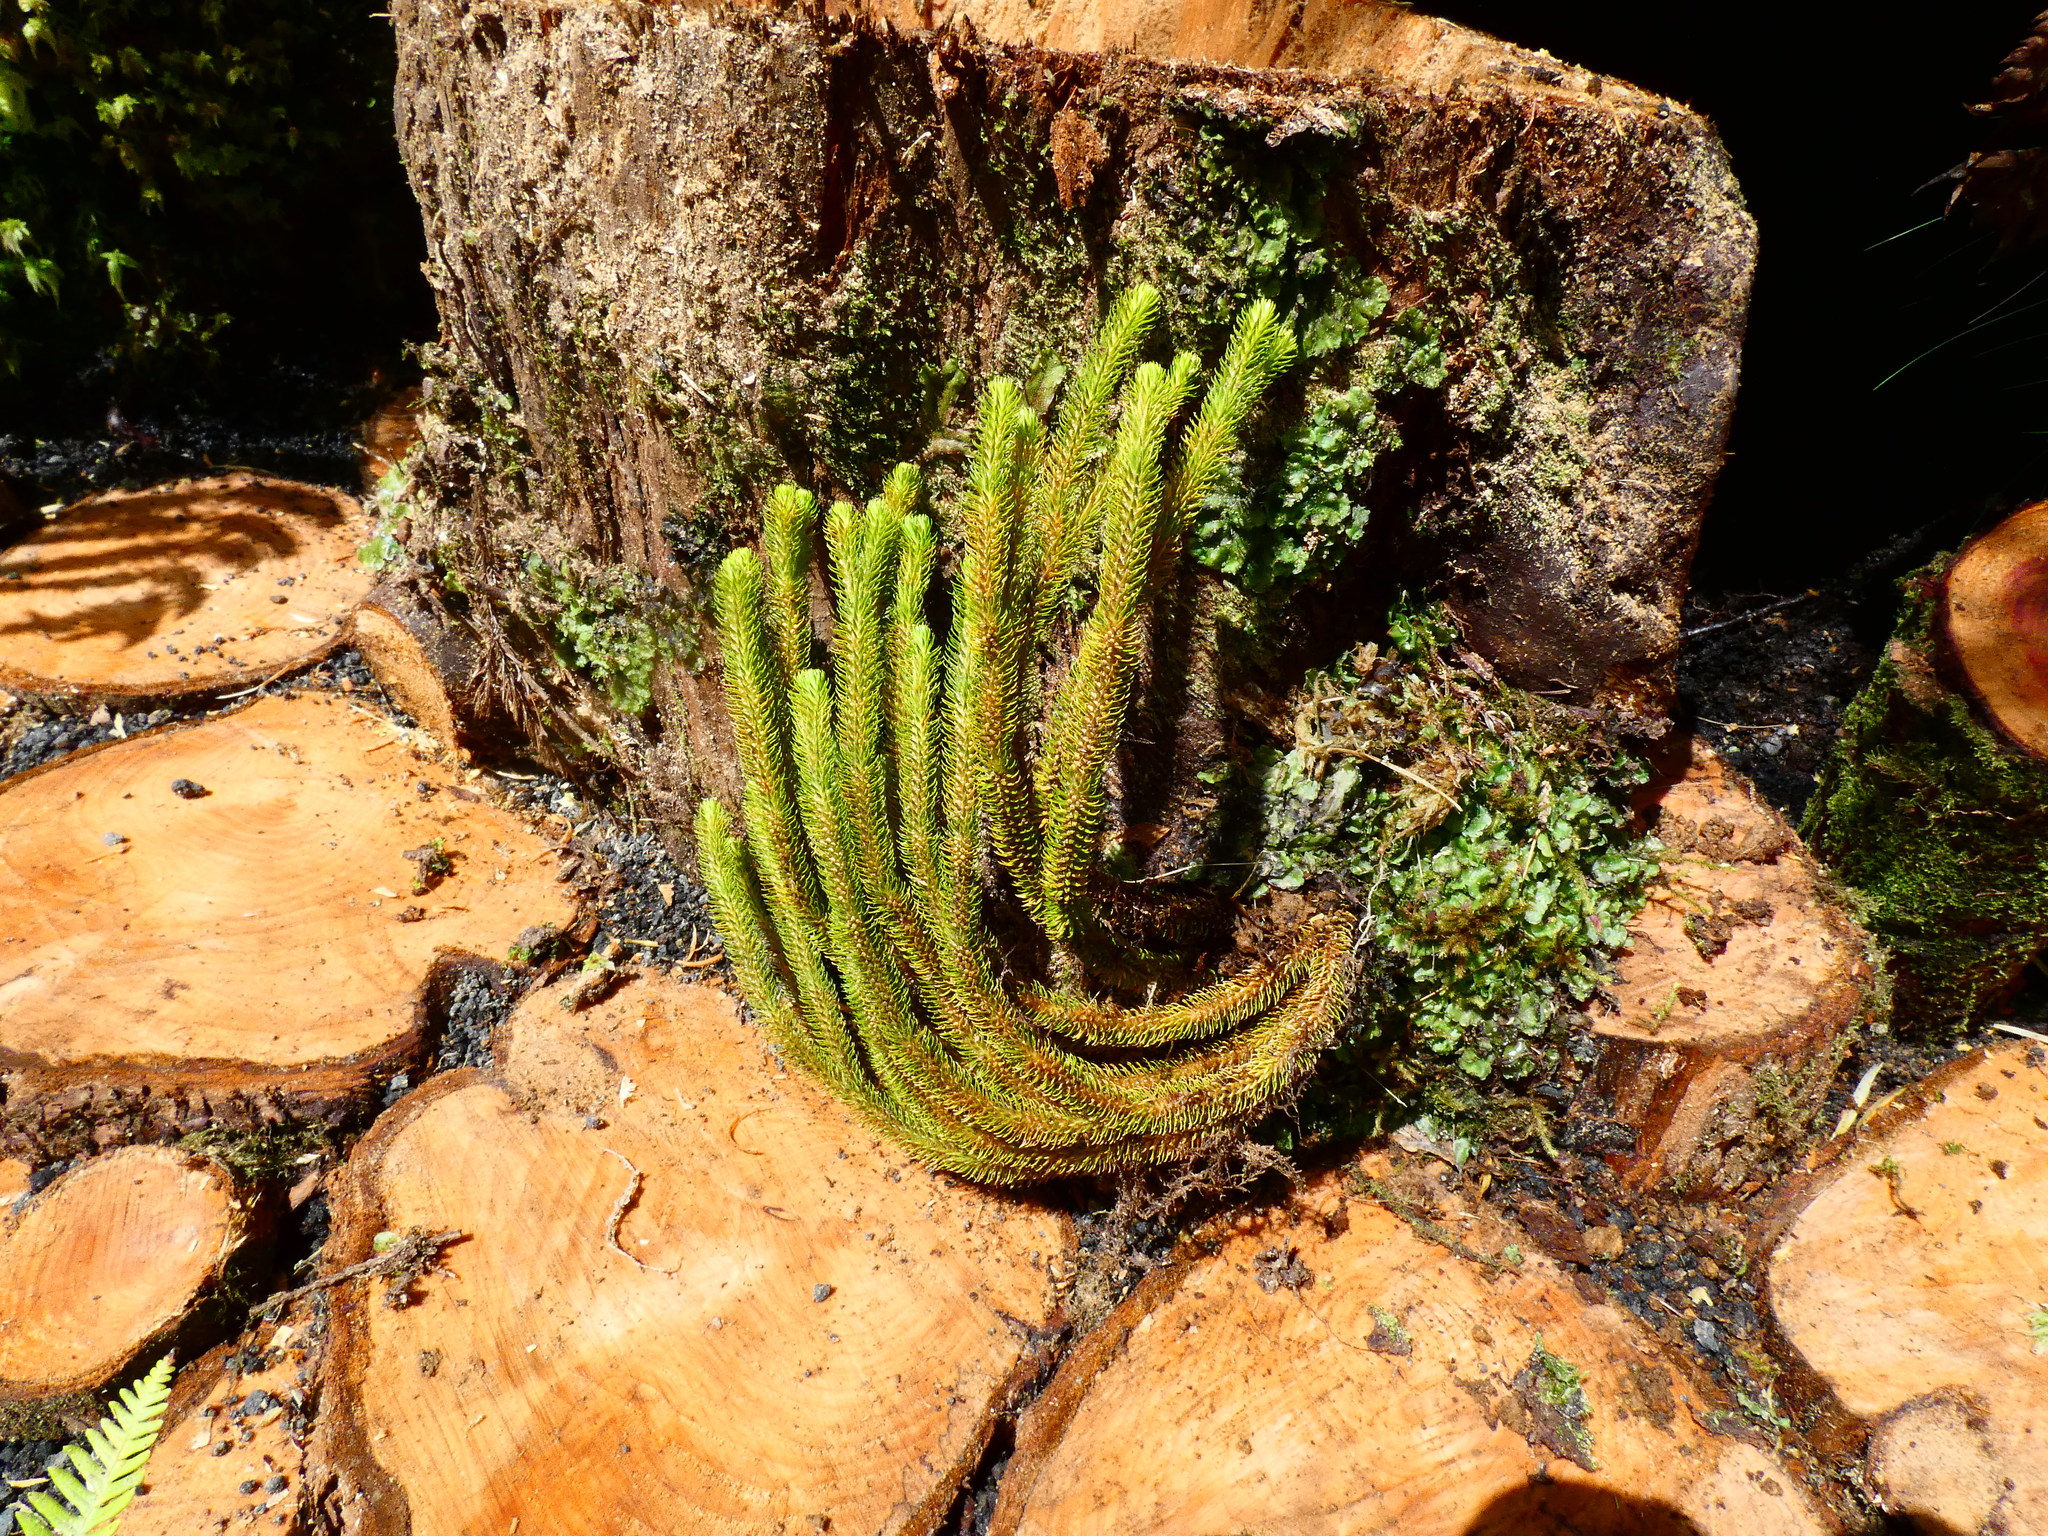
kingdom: Plantae
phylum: Tracheophyta
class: Lycopodiopsida
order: Lycopodiales
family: Lycopodiaceae
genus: Phlegmariurus
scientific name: Phlegmariurus dentatus
